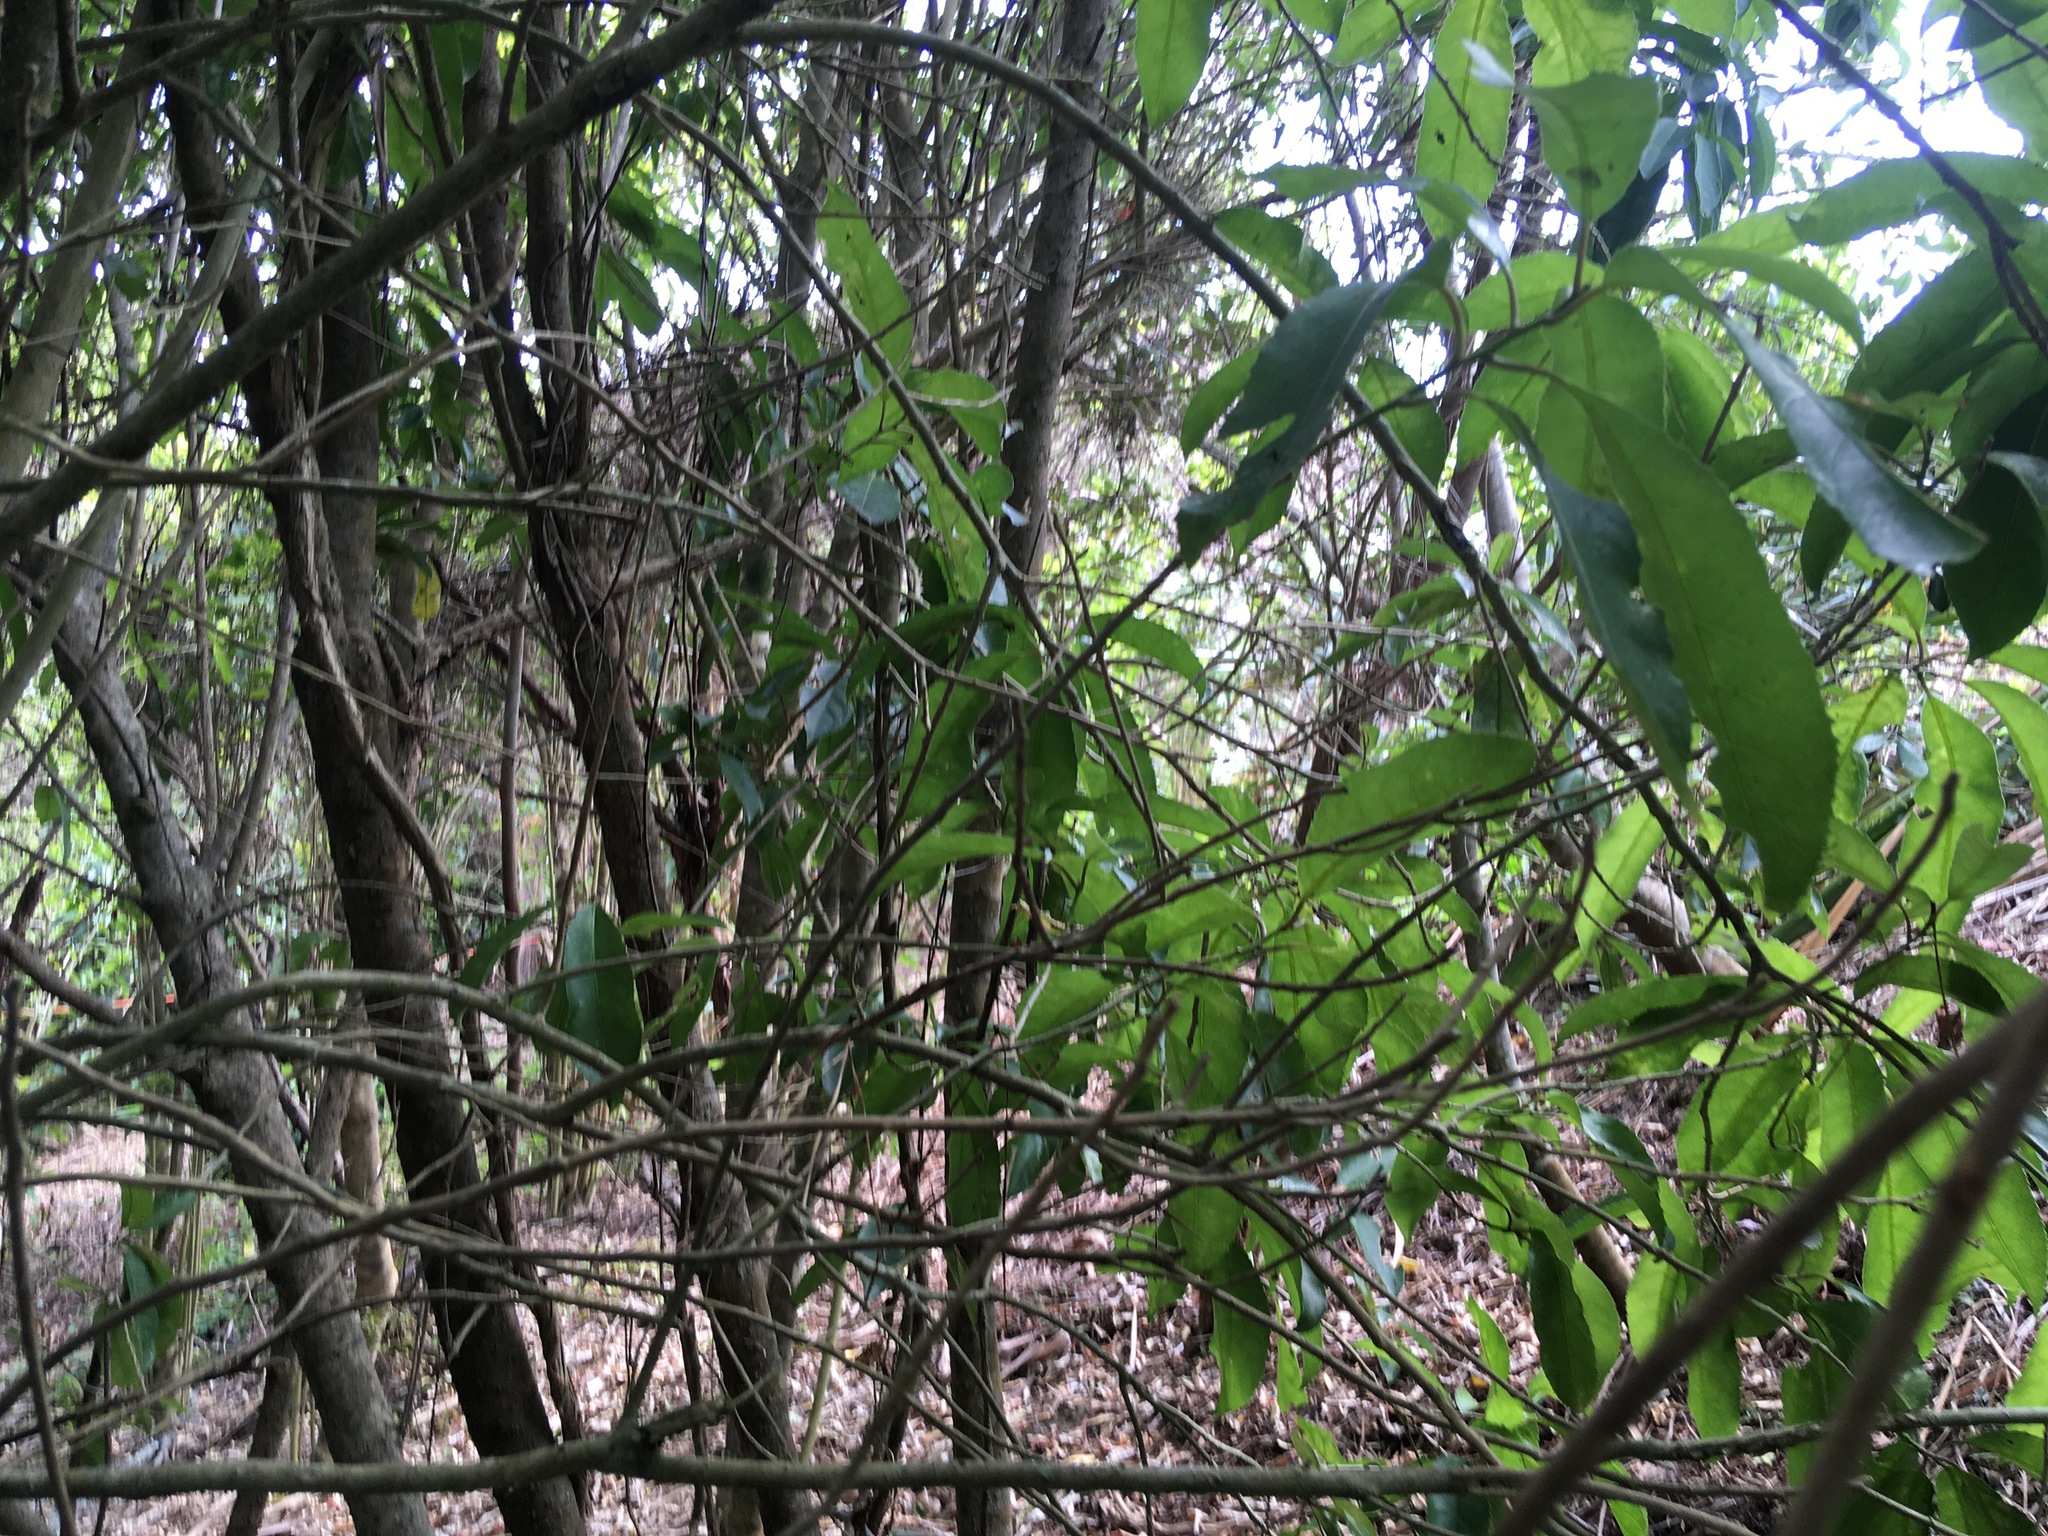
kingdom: Plantae
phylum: Tracheophyta
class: Magnoliopsida
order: Malpighiales
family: Violaceae
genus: Melicytus
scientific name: Melicytus ramiflorus
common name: Mahoe
